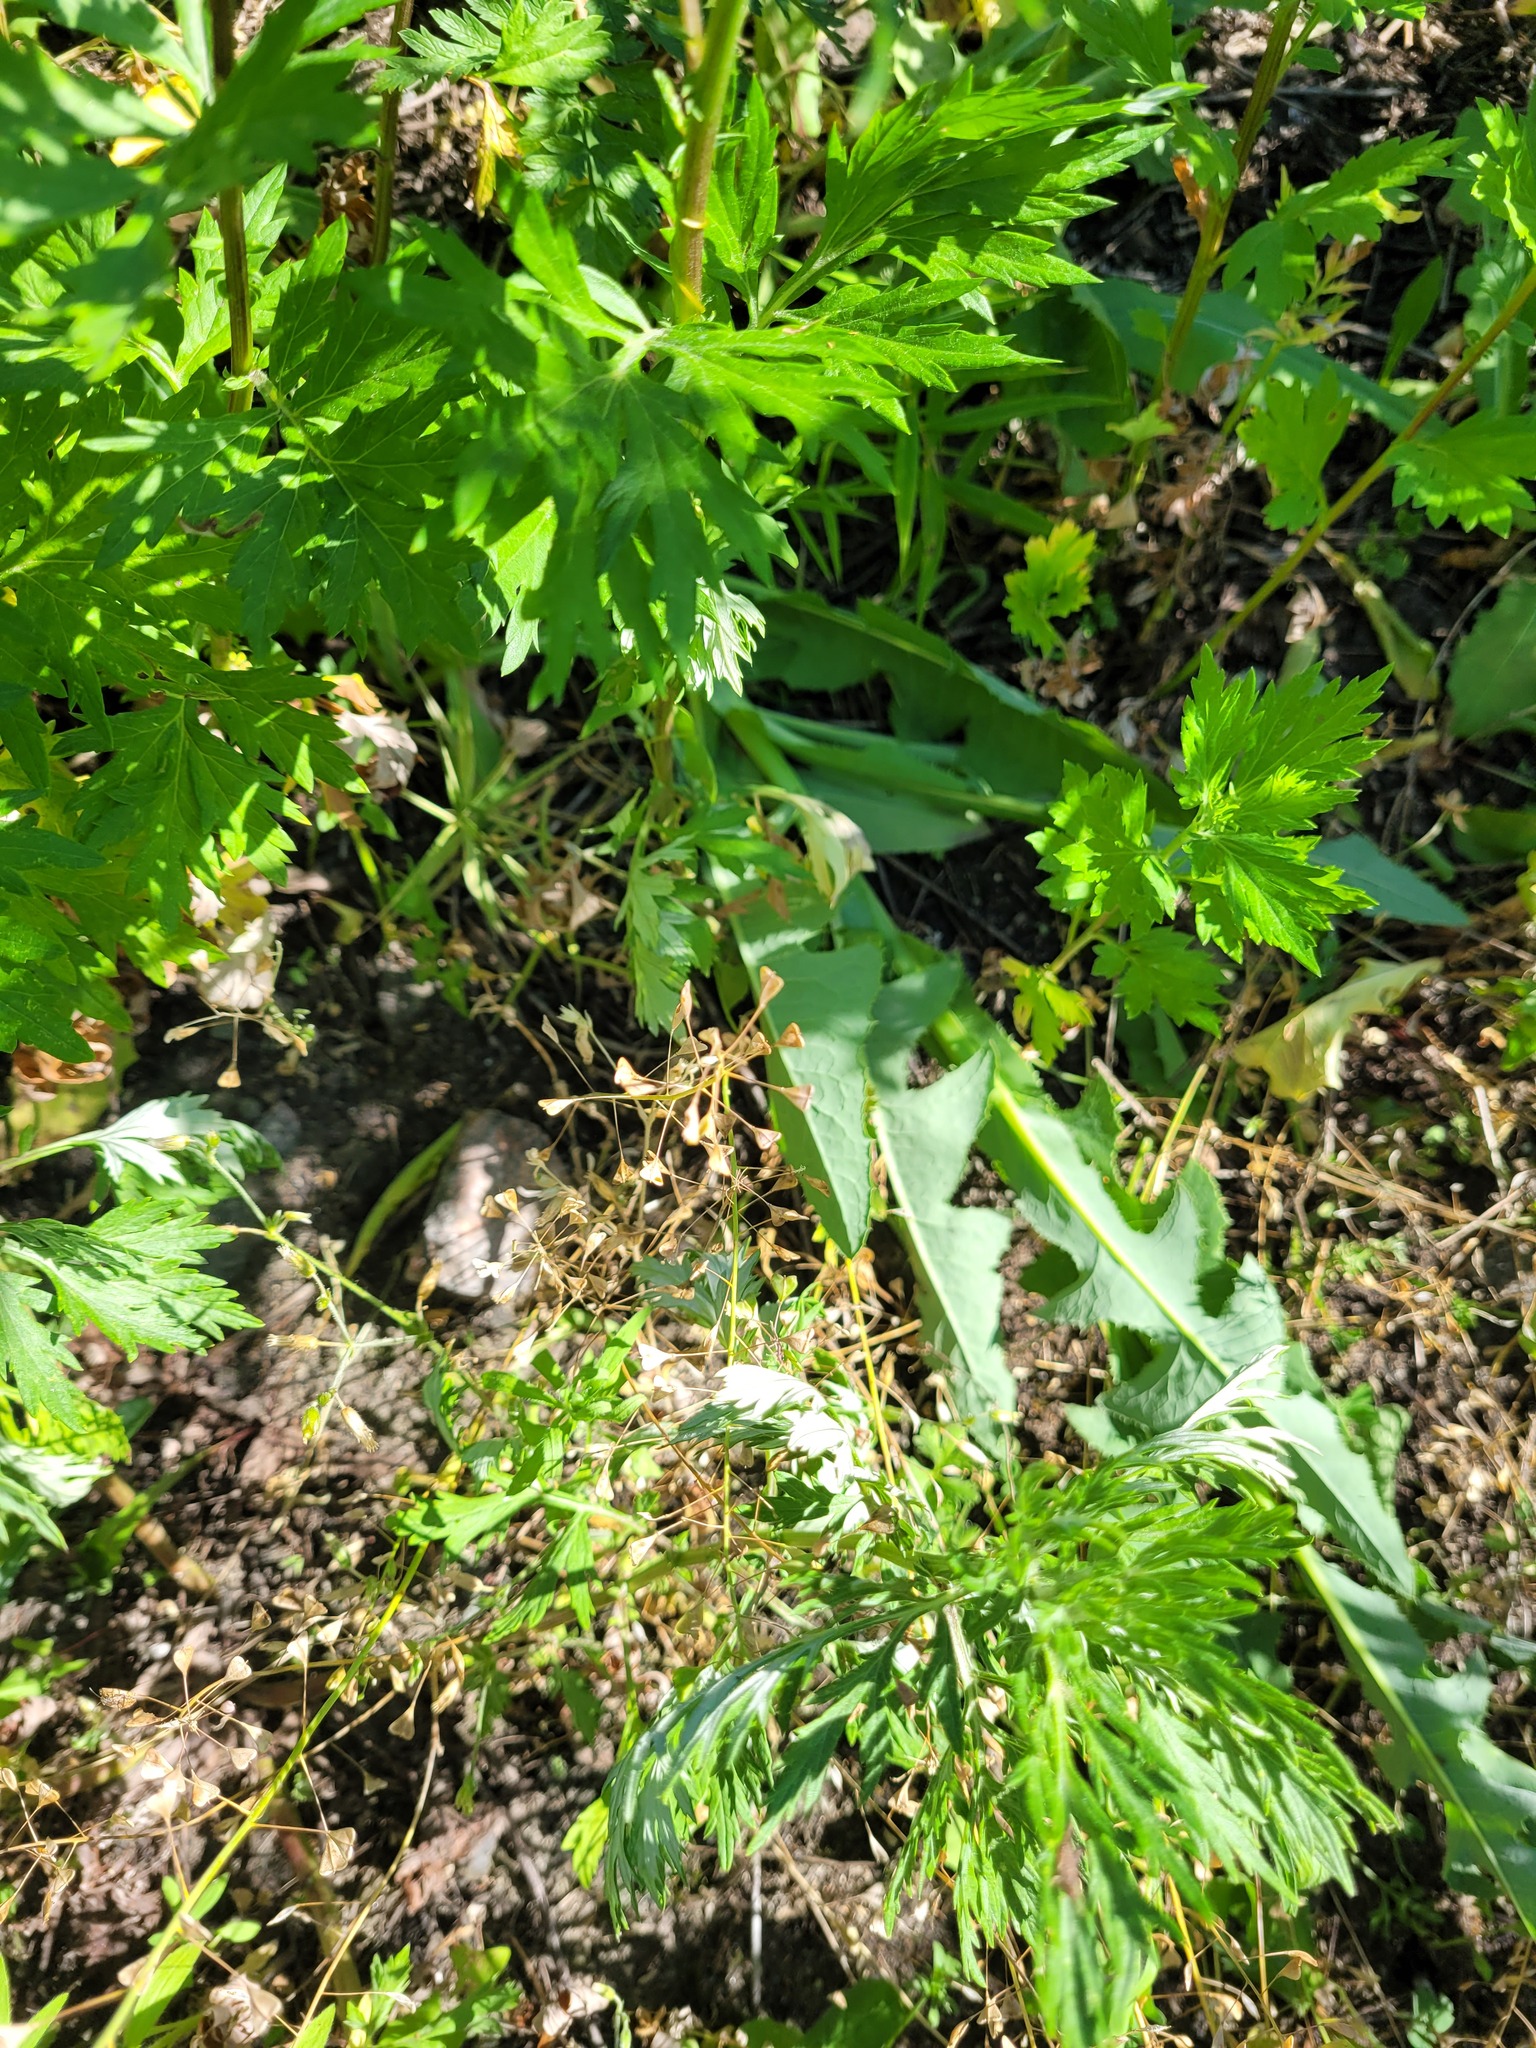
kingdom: Plantae
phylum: Tracheophyta
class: Magnoliopsida
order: Brassicales
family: Brassicaceae
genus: Capsella
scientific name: Capsella bursa-pastoris
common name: Shepherd's purse
